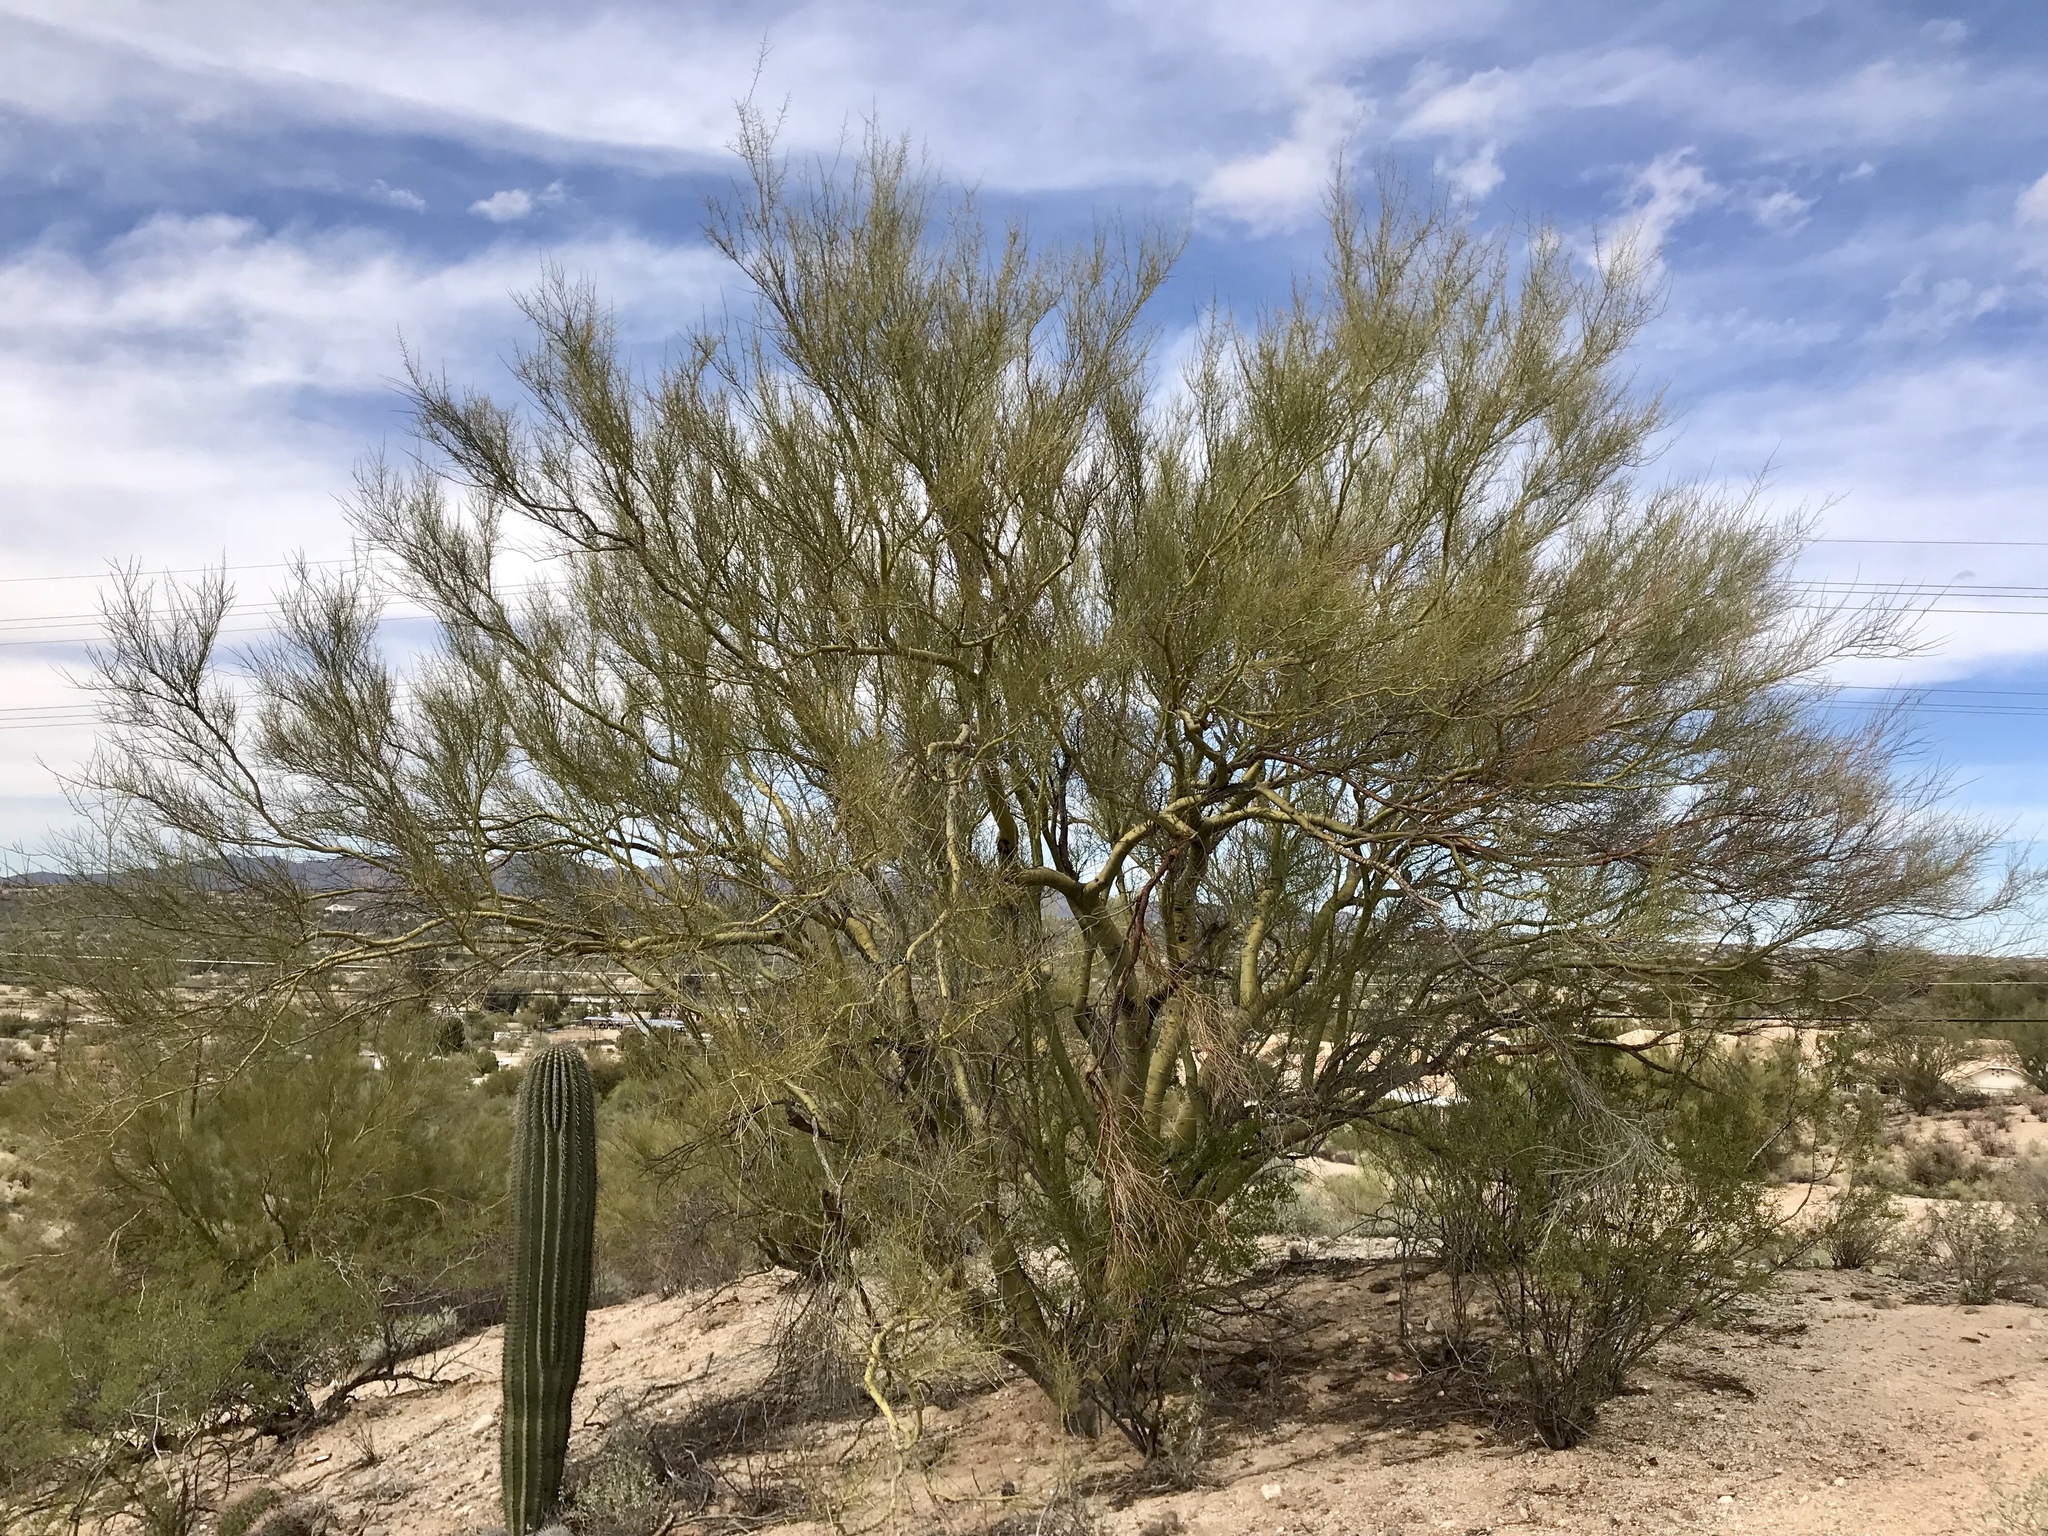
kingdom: Plantae
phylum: Tracheophyta
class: Magnoliopsida
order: Fabales
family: Fabaceae
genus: Parkinsonia
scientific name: Parkinsonia microphylla
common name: Yellow paloverde
